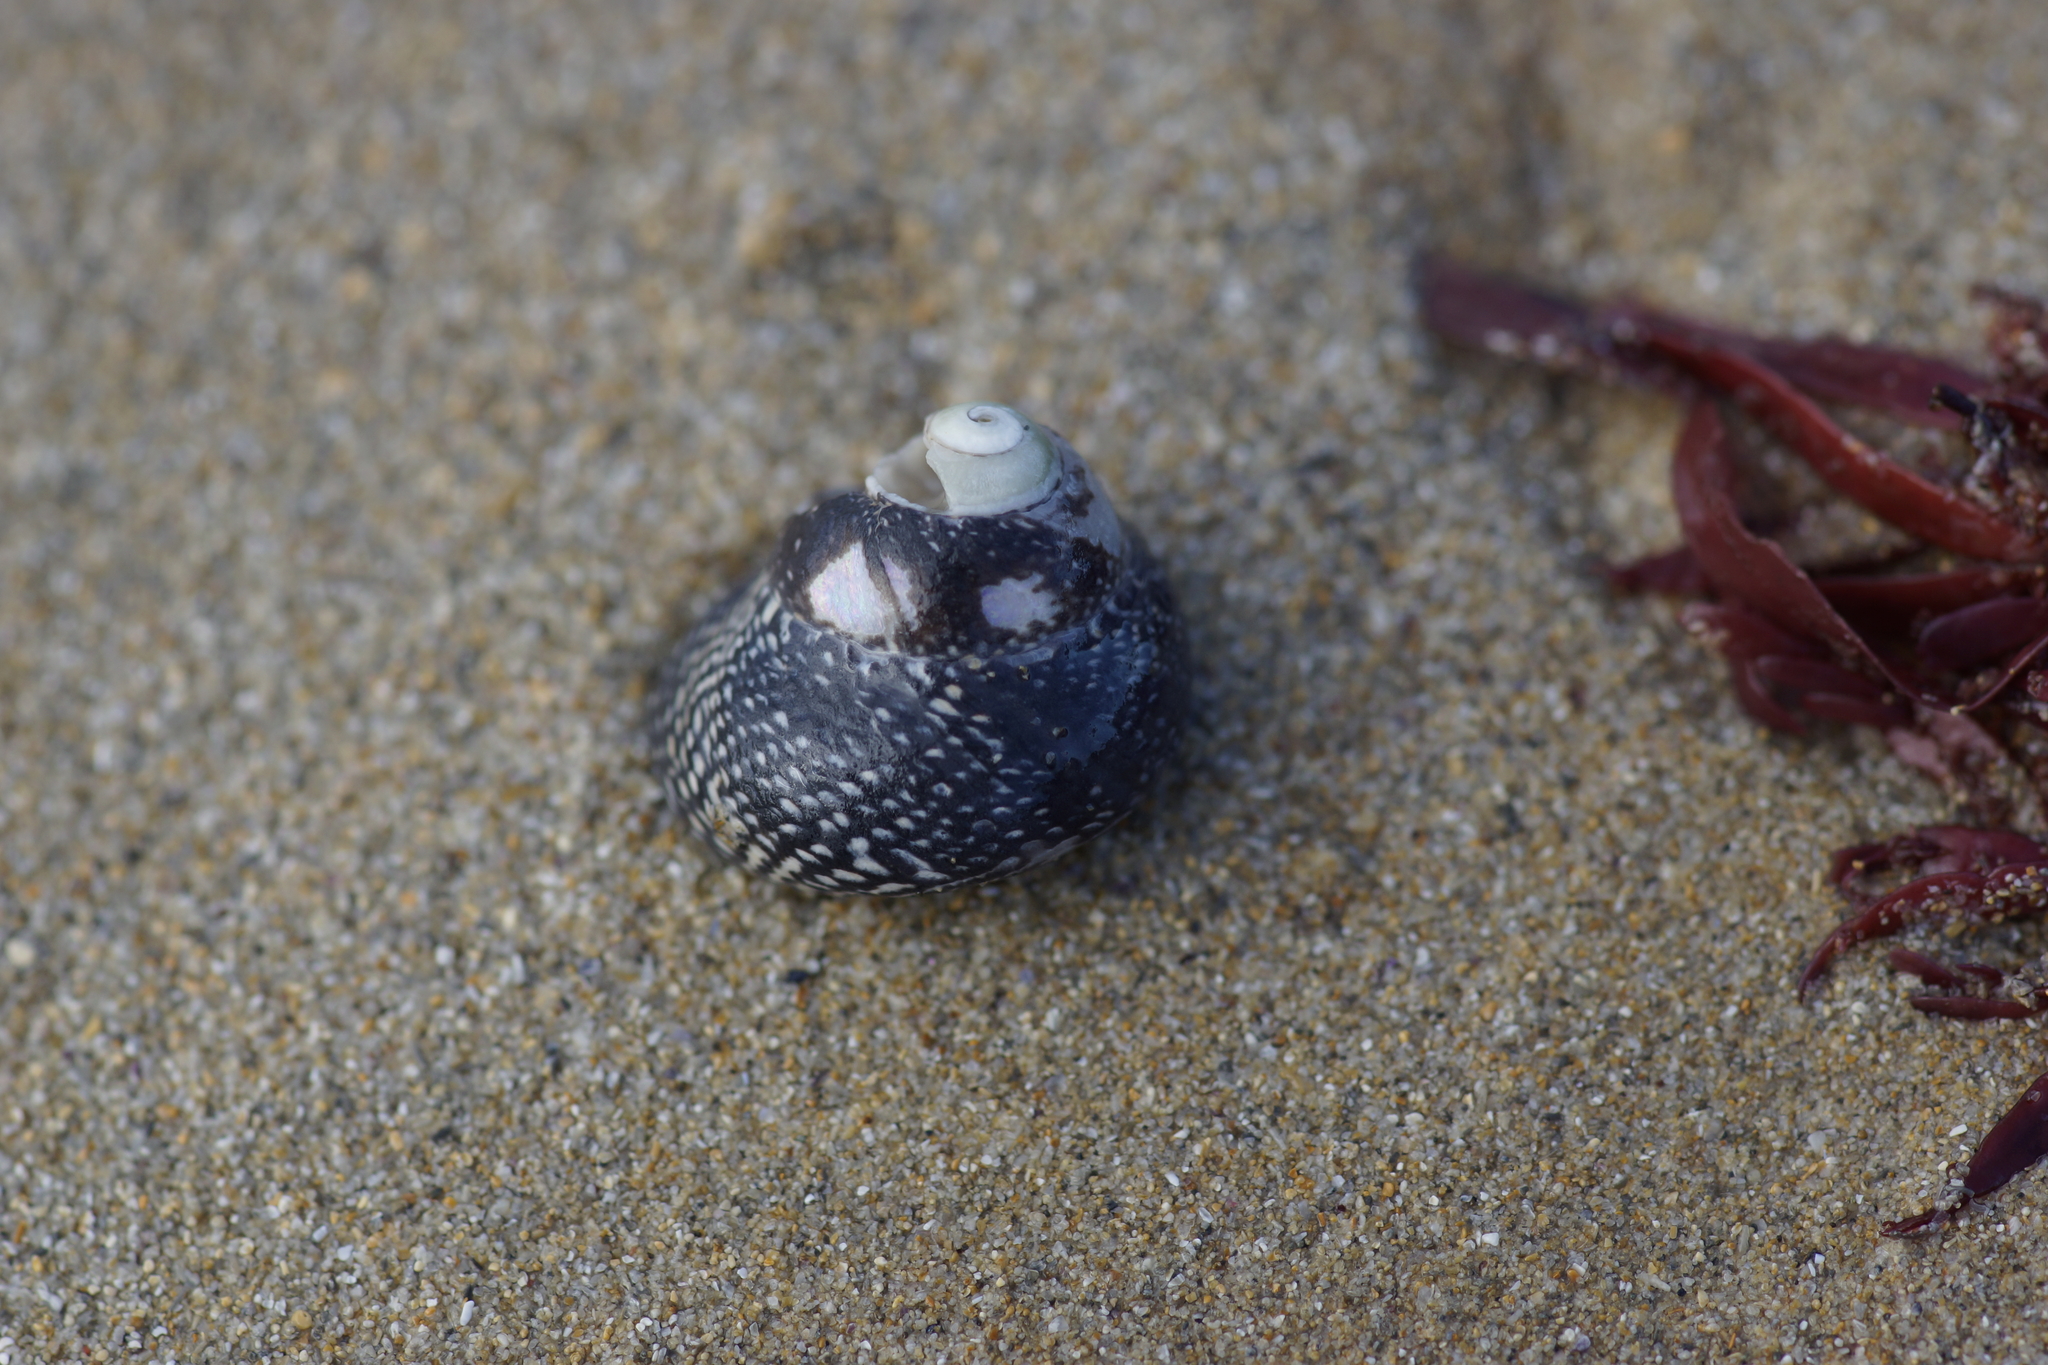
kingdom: Animalia
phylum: Mollusca
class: Gastropoda
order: Trochida
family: Trochidae
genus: Chlorodiloma
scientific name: Chlorodiloma odontis
